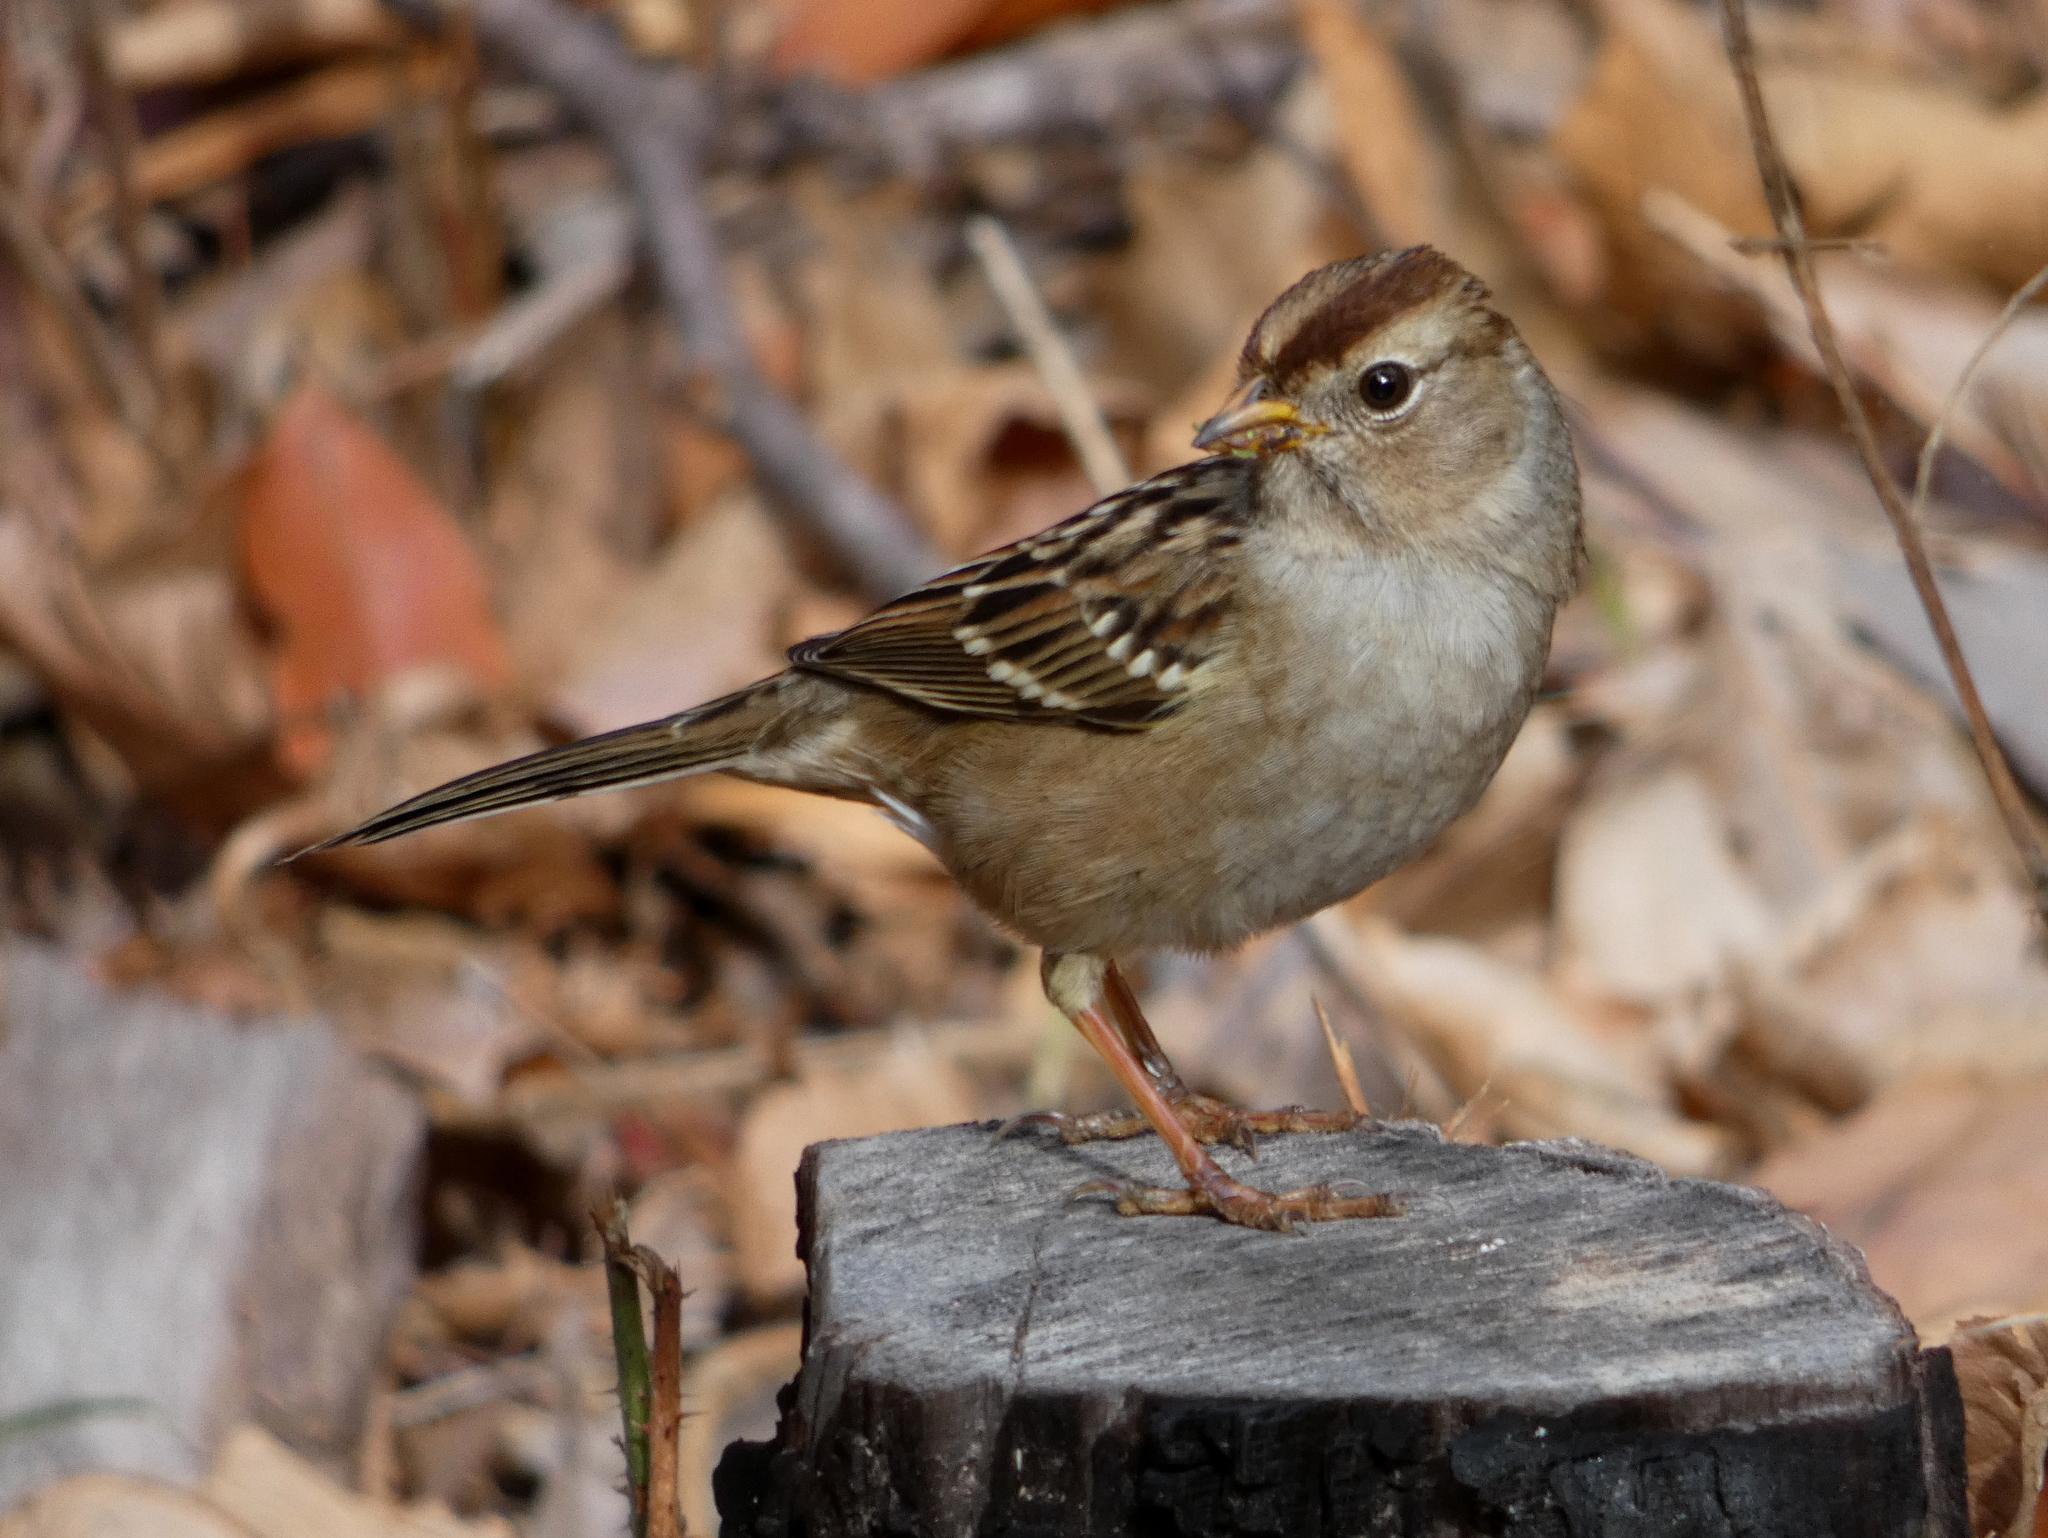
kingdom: Animalia
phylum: Chordata
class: Aves
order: Passeriformes
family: Passerellidae
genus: Zonotrichia
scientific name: Zonotrichia leucophrys
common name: White-crowned sparrow
